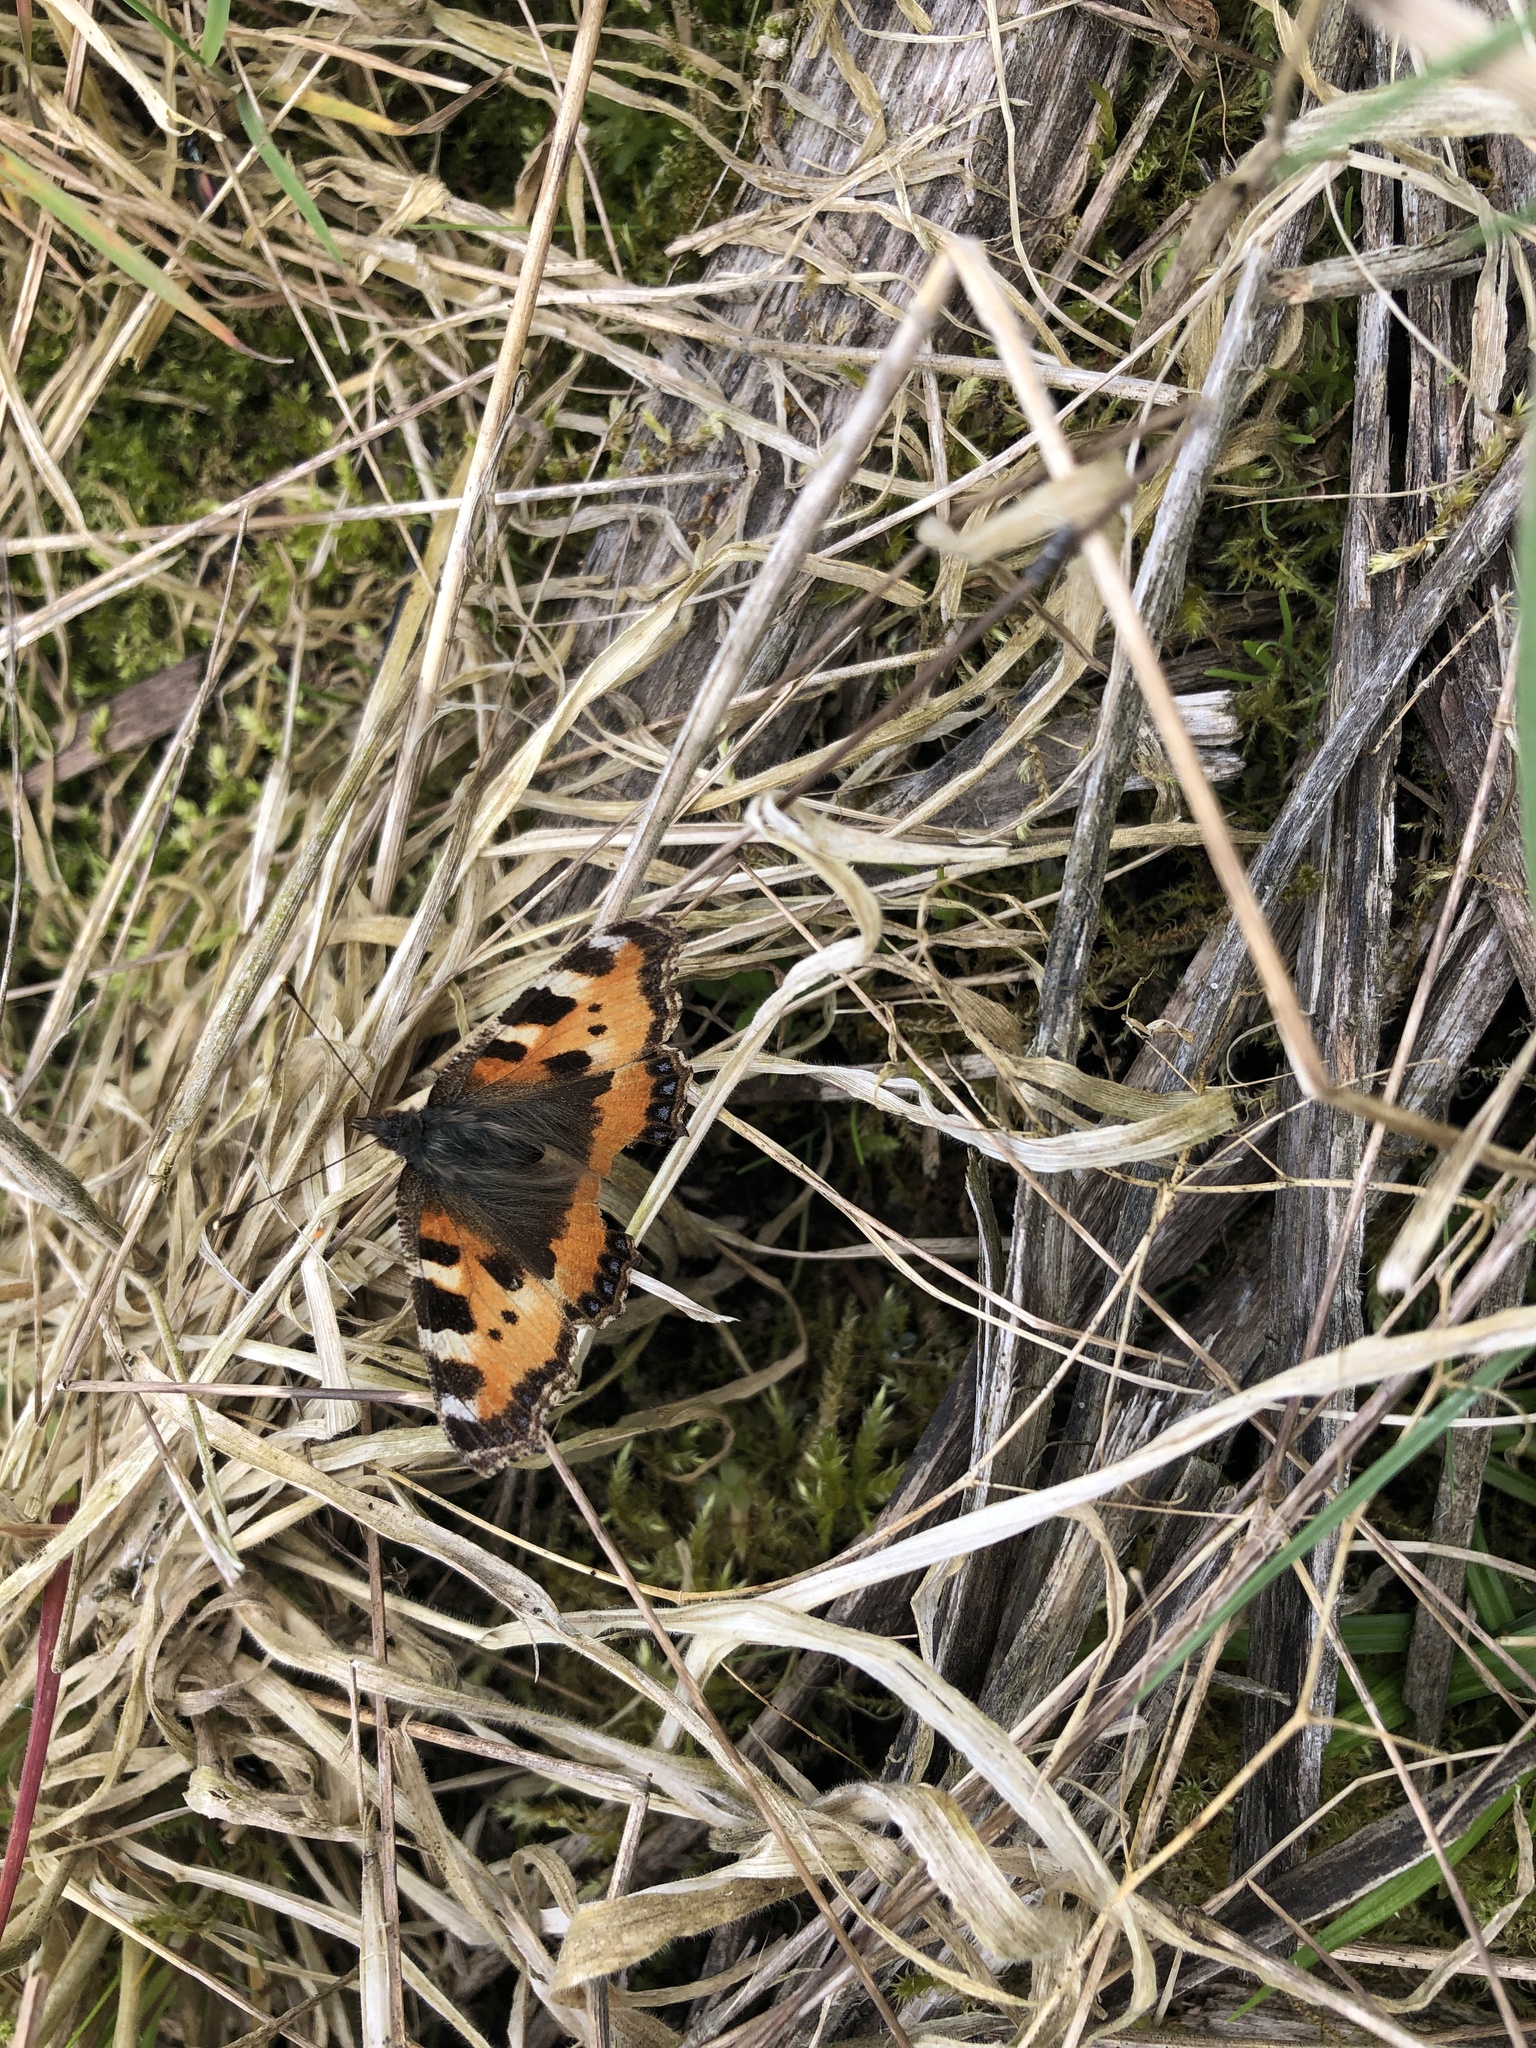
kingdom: Animalia
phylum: Arthropoda
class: Insecta
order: Lepidoptera
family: Nymphalidae
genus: Aglais
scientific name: Aglais urticae
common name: Small tortoiseshell
